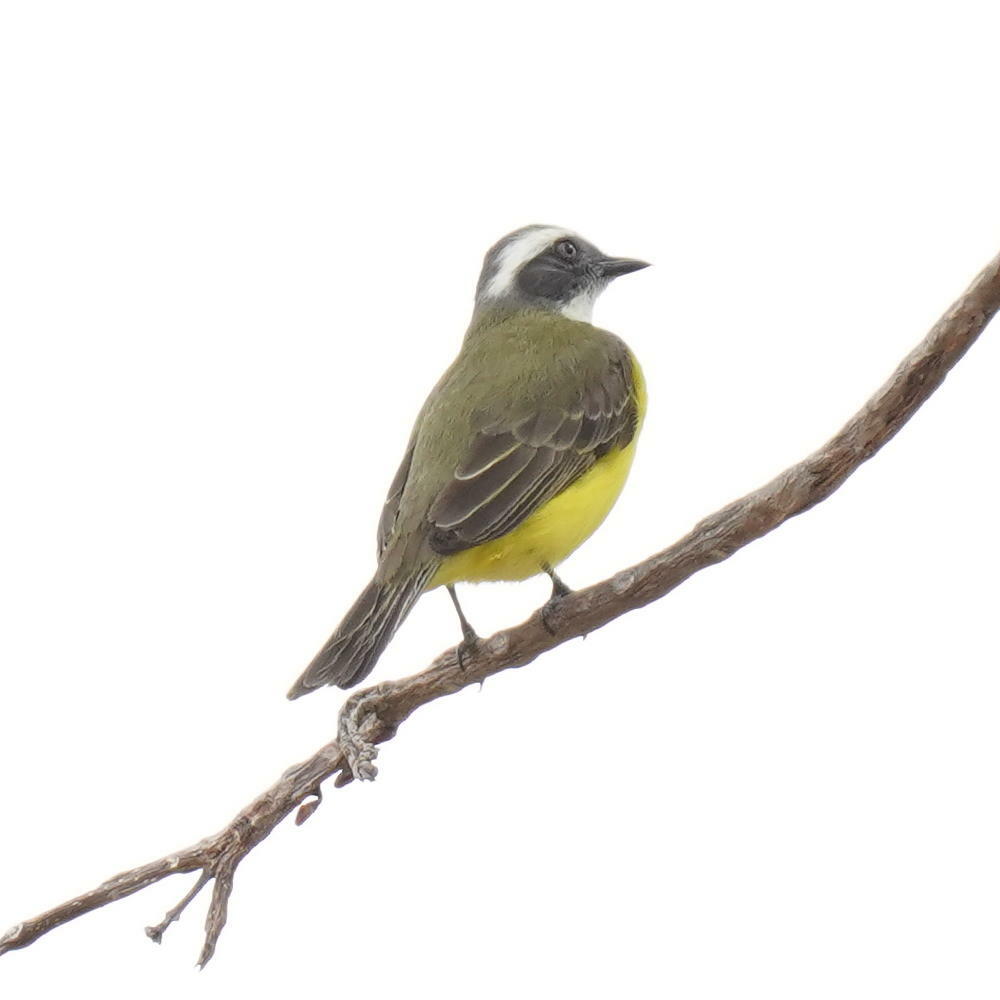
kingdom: Animalia
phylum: Chordata
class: Aves
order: Passeriformes
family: Tyrannidae
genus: Myiozetetes
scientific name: Myiozetetes similis
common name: Social flycatcher
